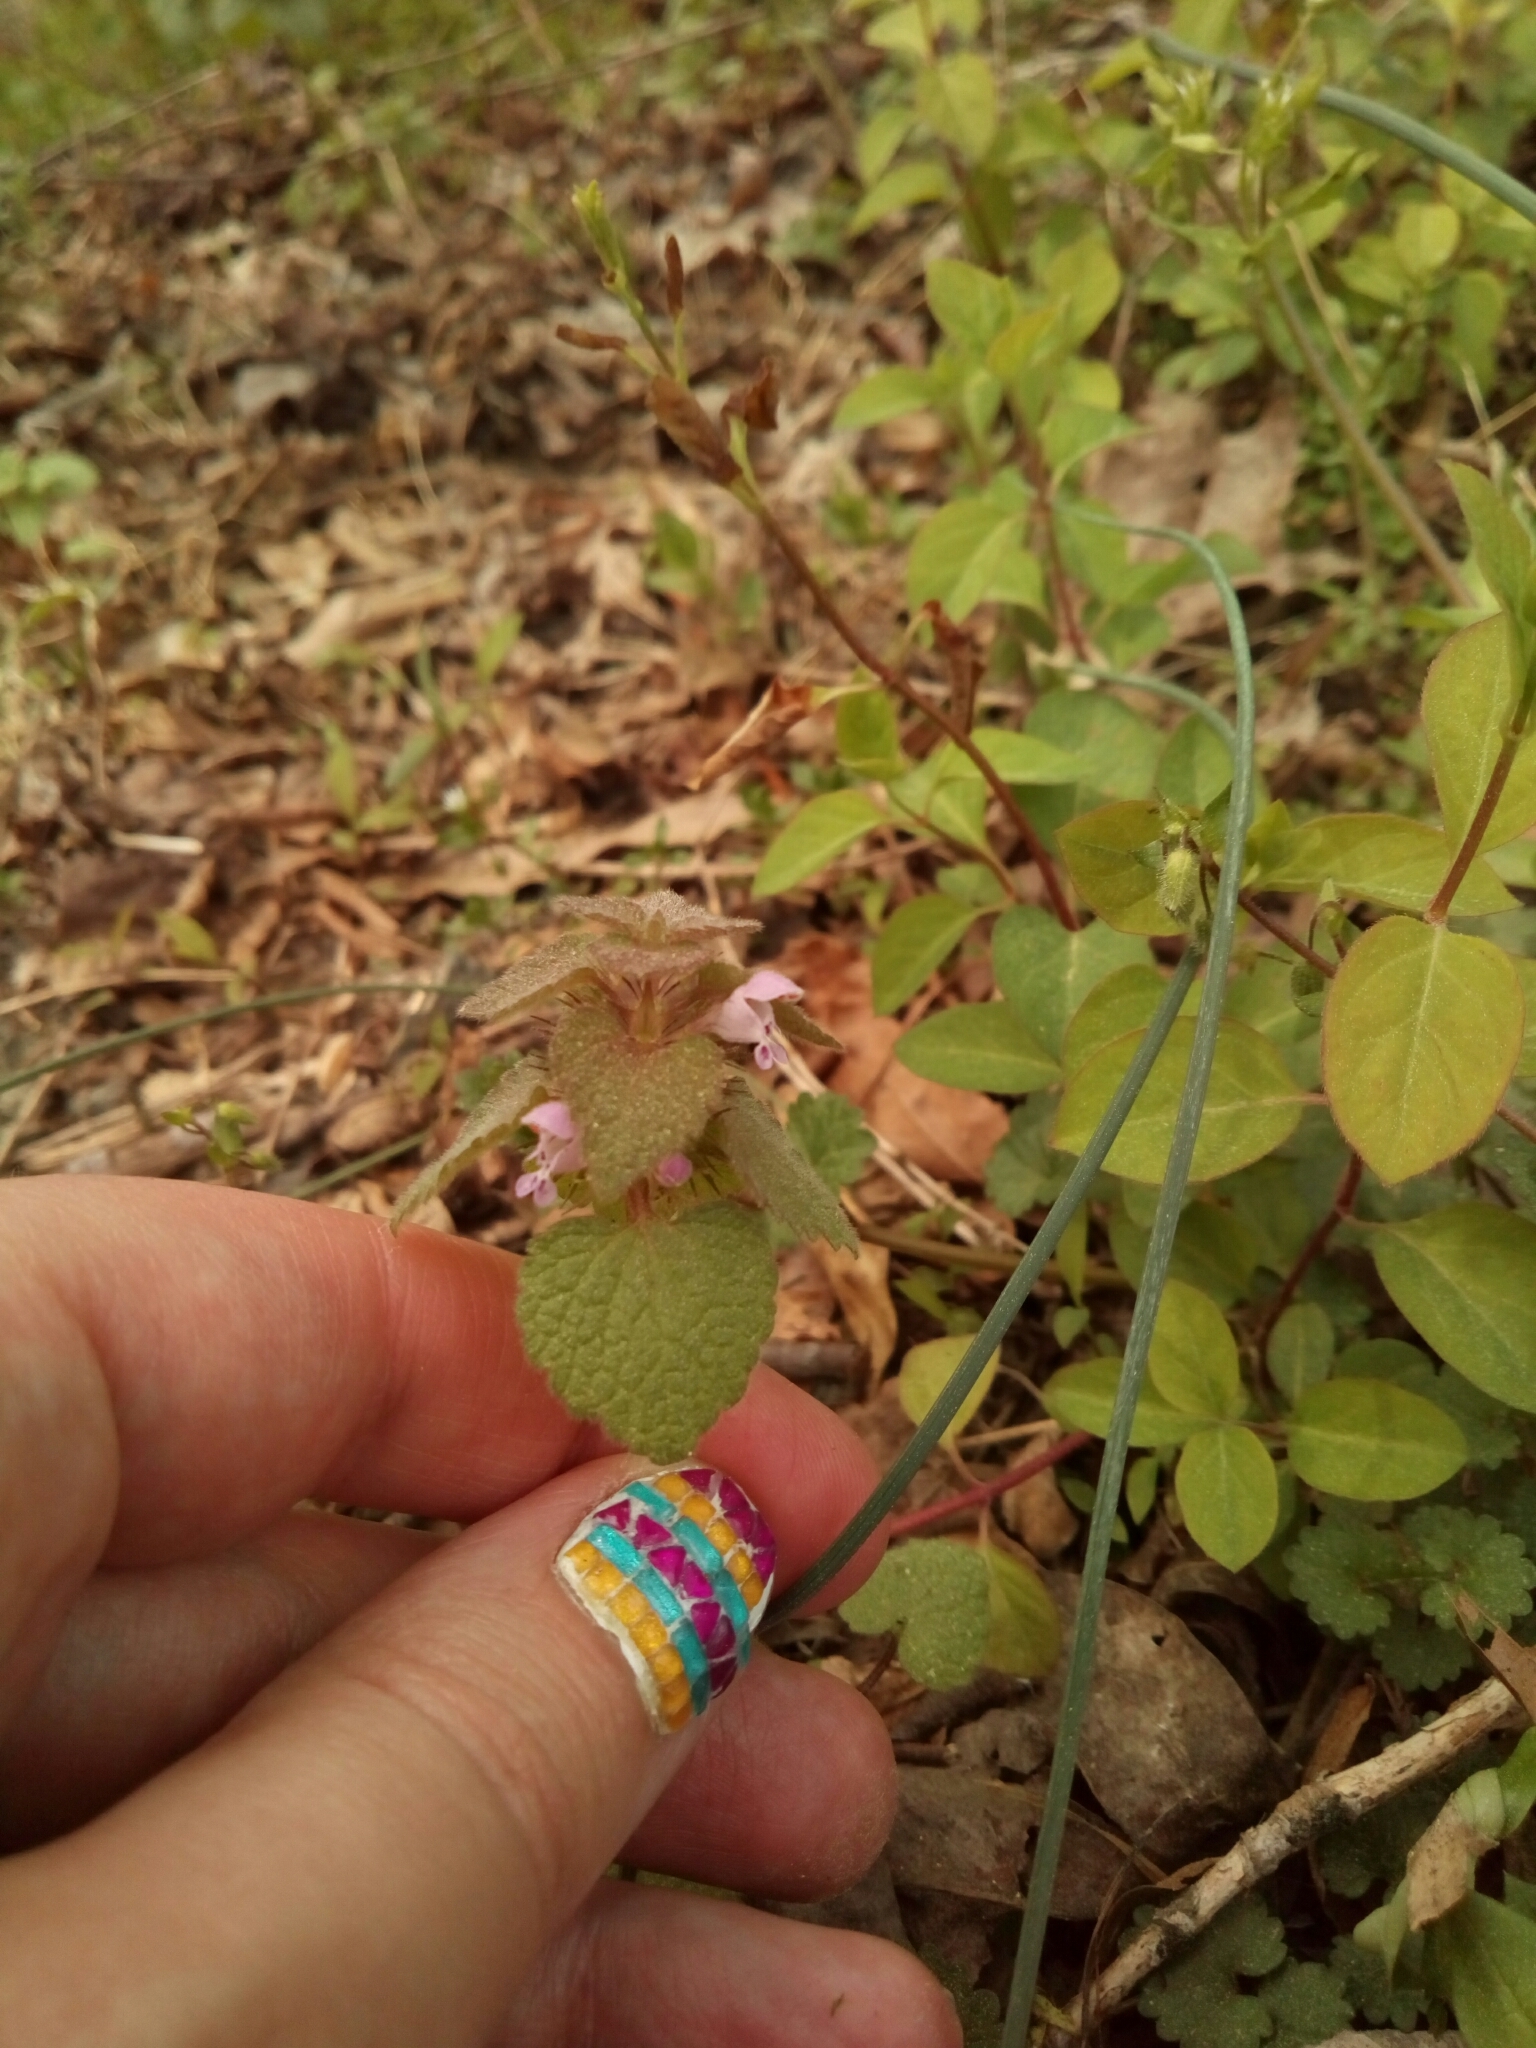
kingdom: Plantae
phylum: Tracheophyta
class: Magnoliopsida
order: Lamiales
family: Lamiaceae
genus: Lamium
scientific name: Lamium purpureum
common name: Red dead-nettle
